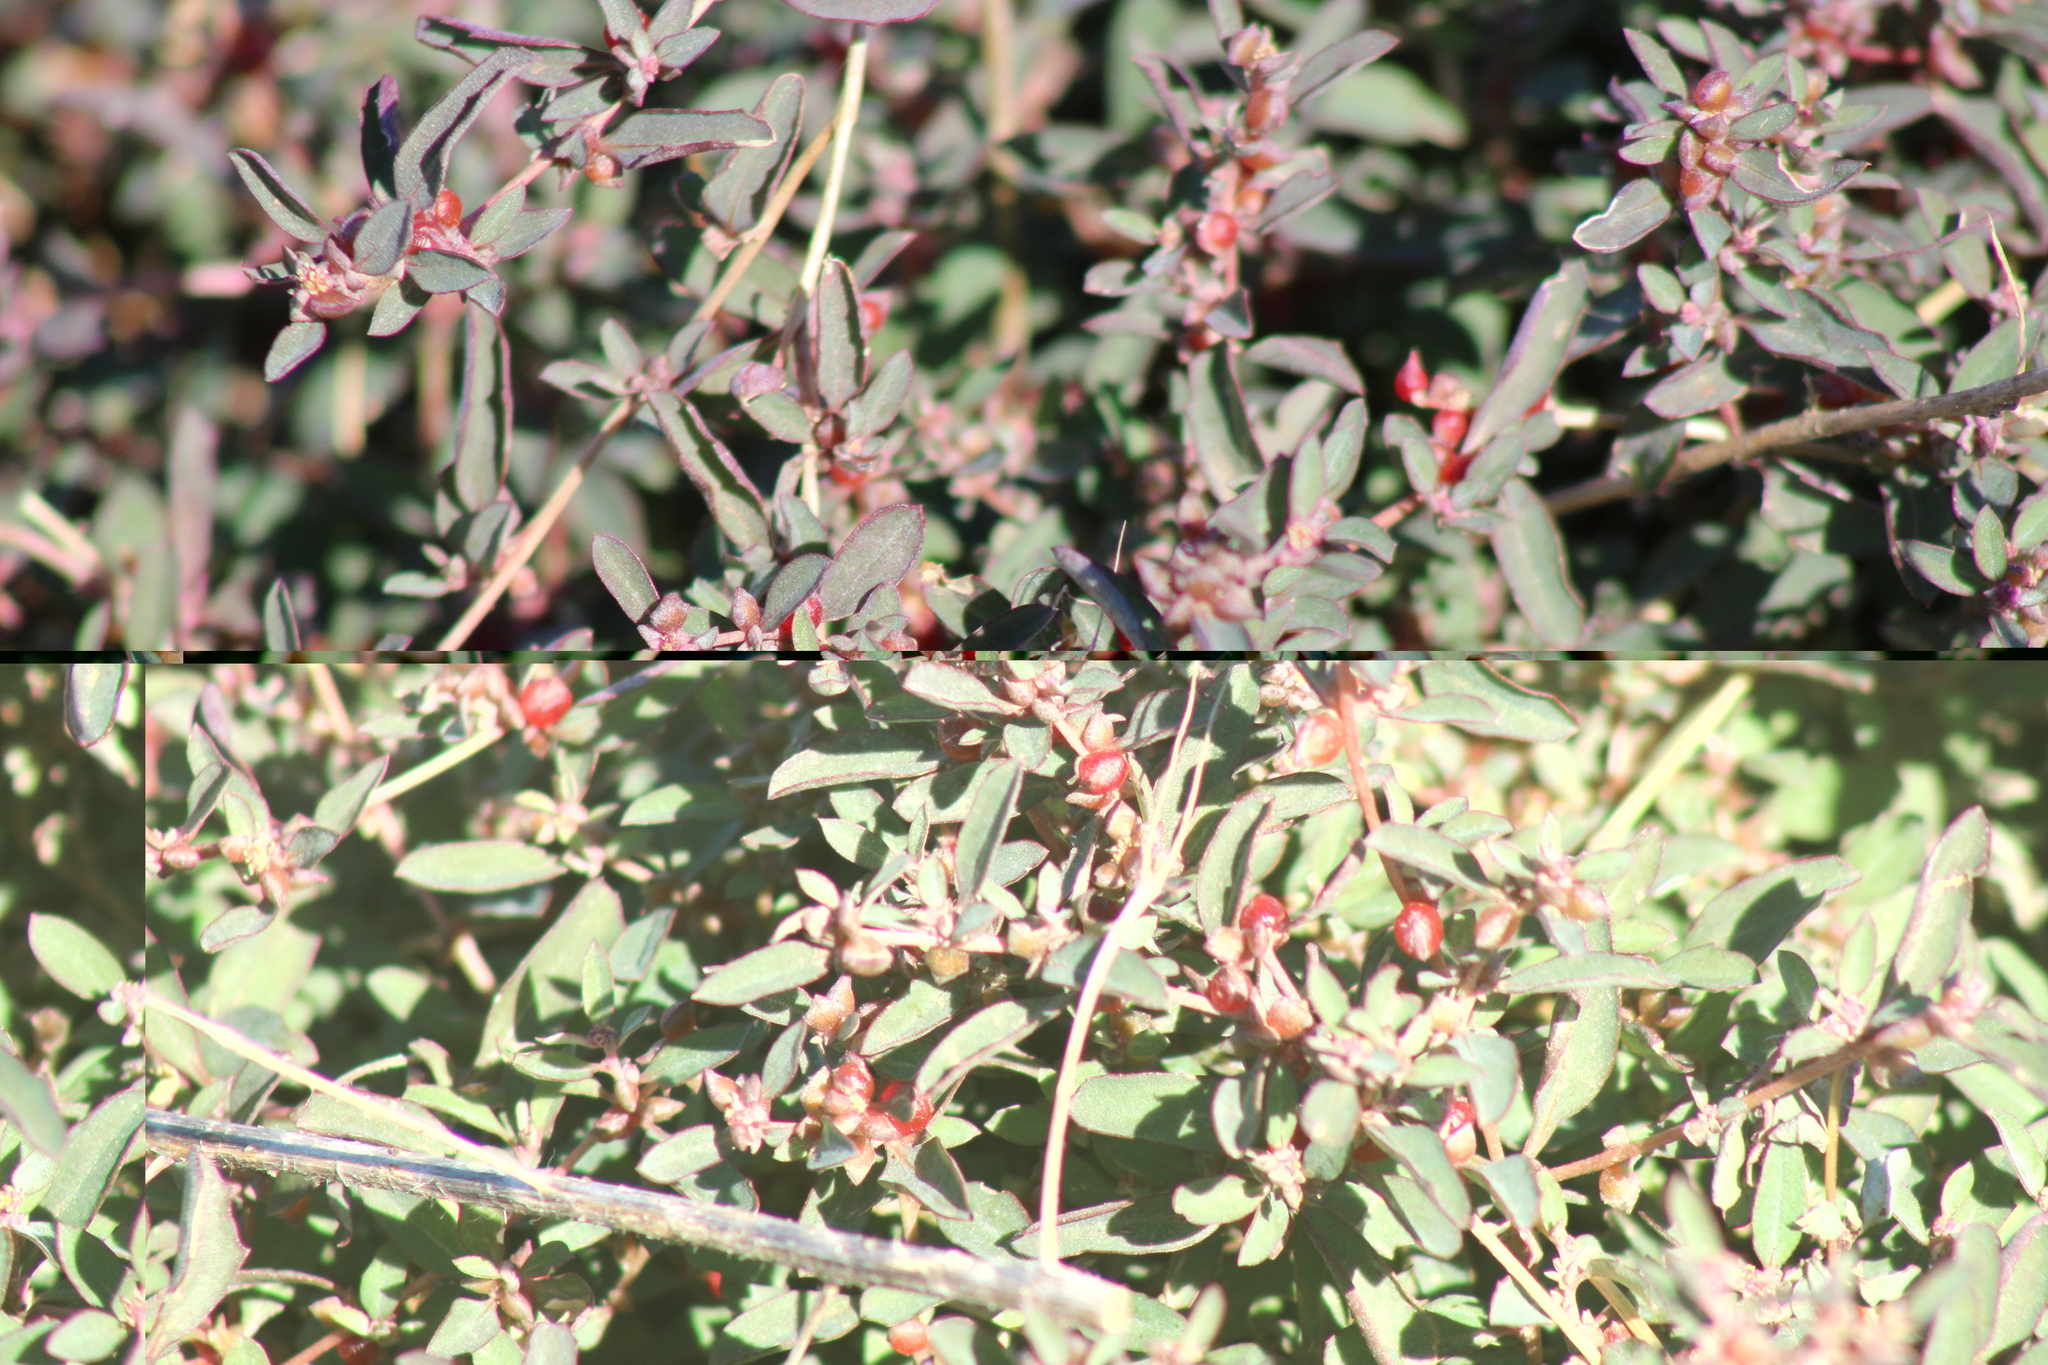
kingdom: Plantae
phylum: Tracheophyta
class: Magnoliopsida
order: Caryophyllales
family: Amaranthaceae
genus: Atriplex
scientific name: Atriplex semibaccata
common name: Australian saltbush
